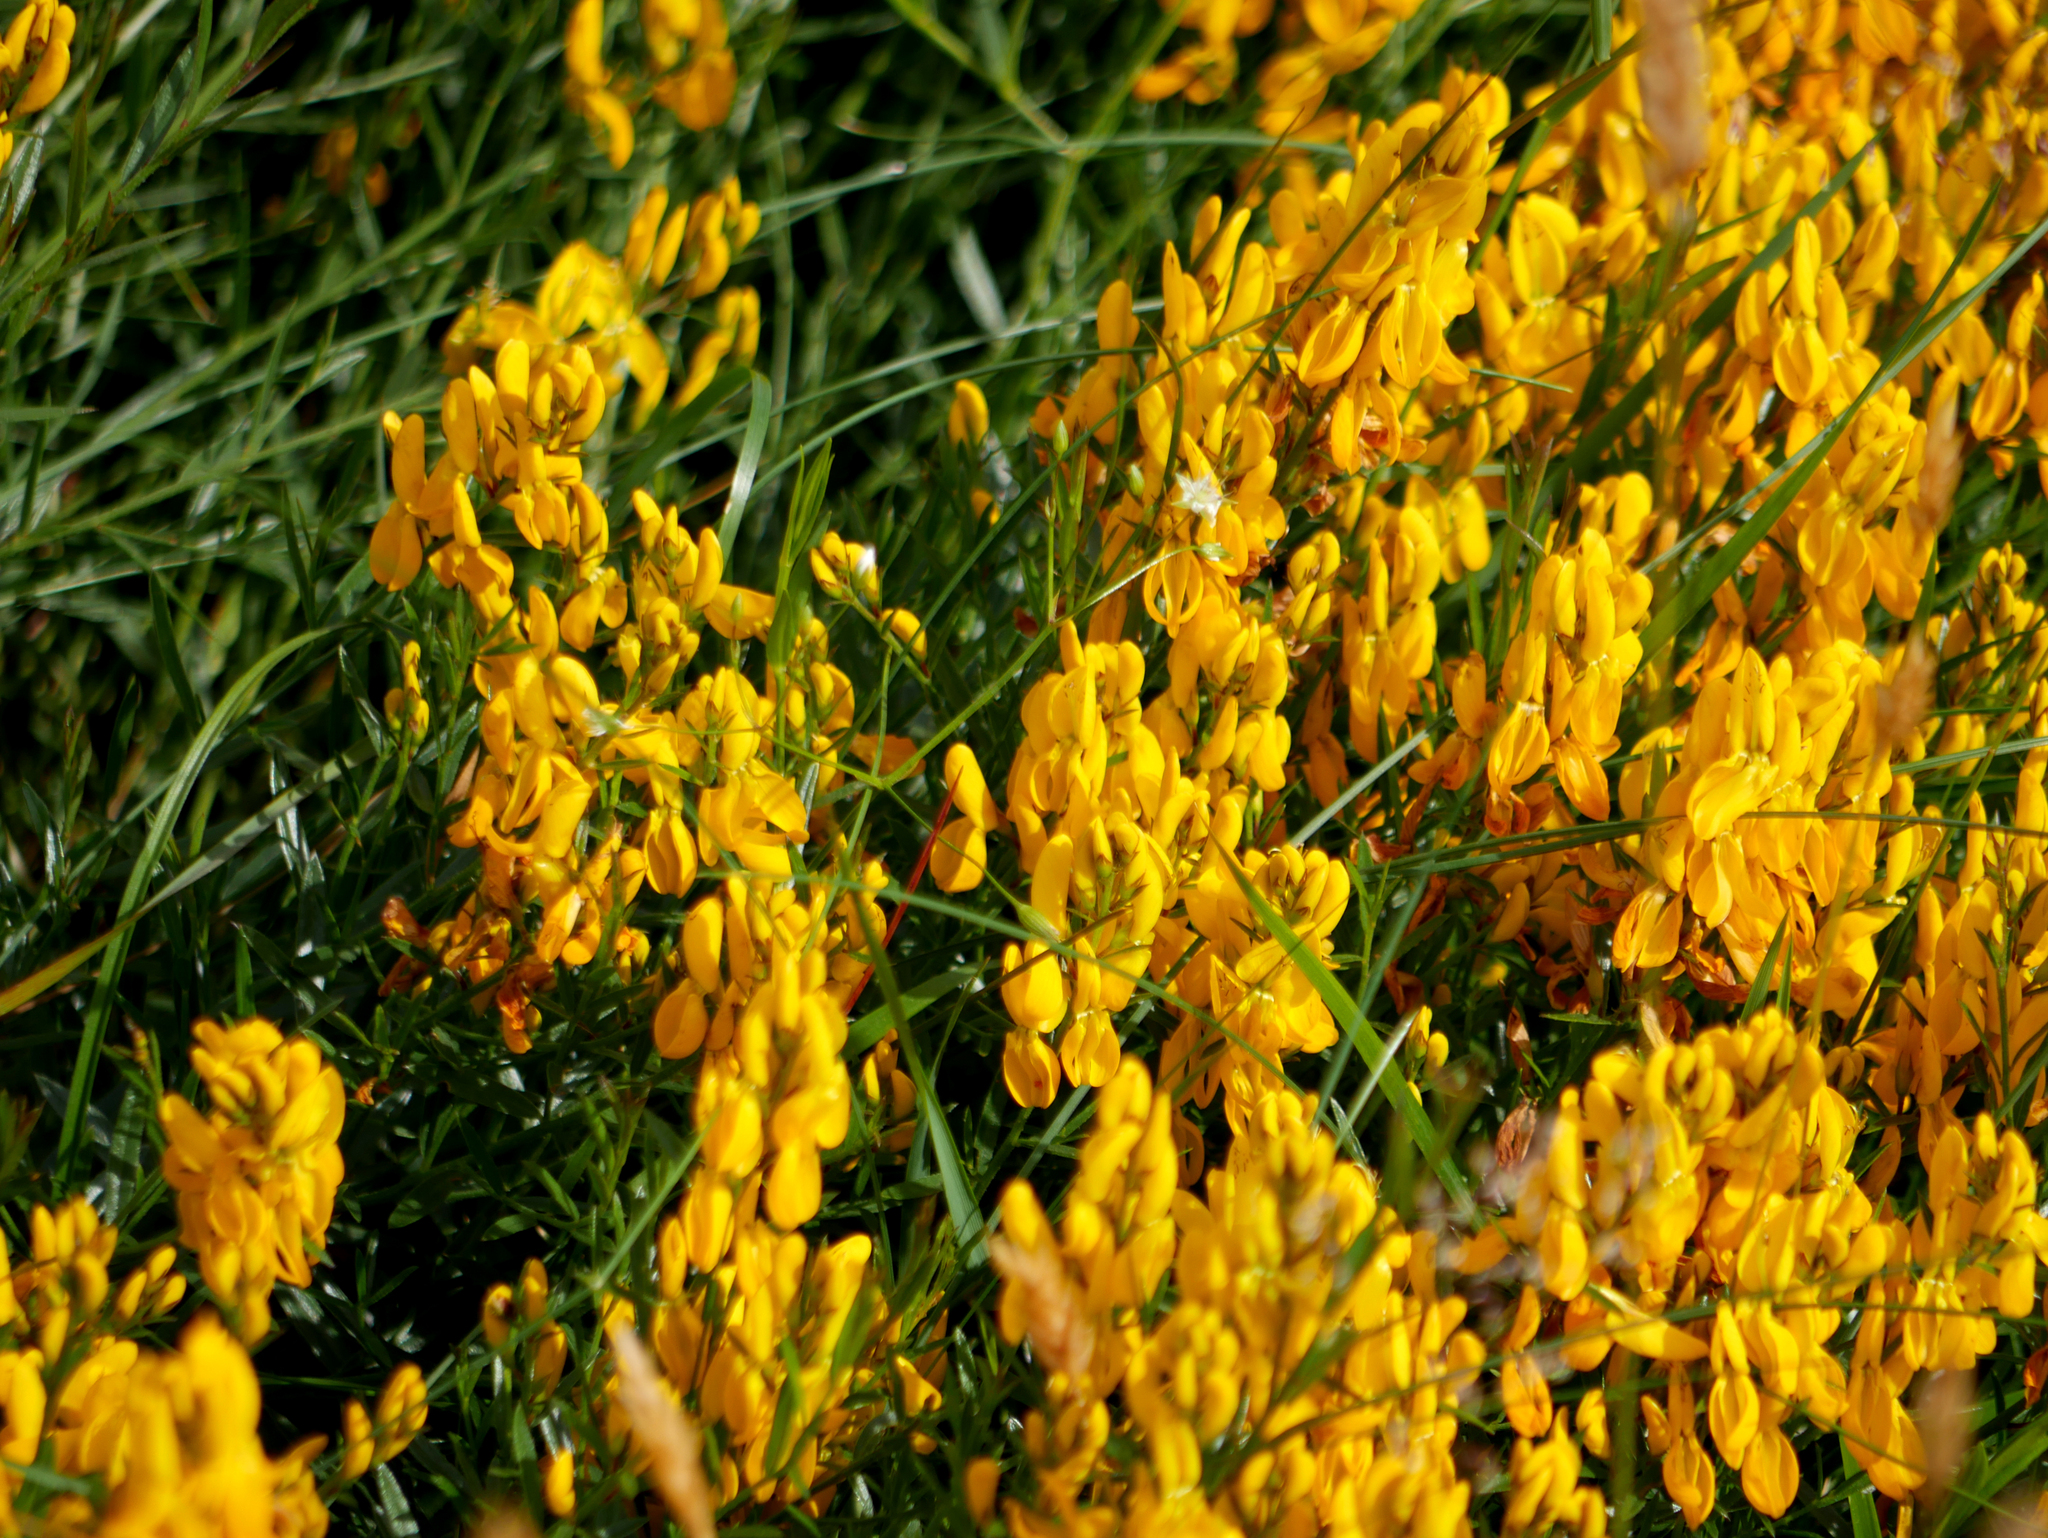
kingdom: Plantae
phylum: Tracheophyta
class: Magnoliopsida
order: Fabales
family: Fabaceae
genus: Genista
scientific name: Genista tinctoria
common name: Dyer's greenweed
